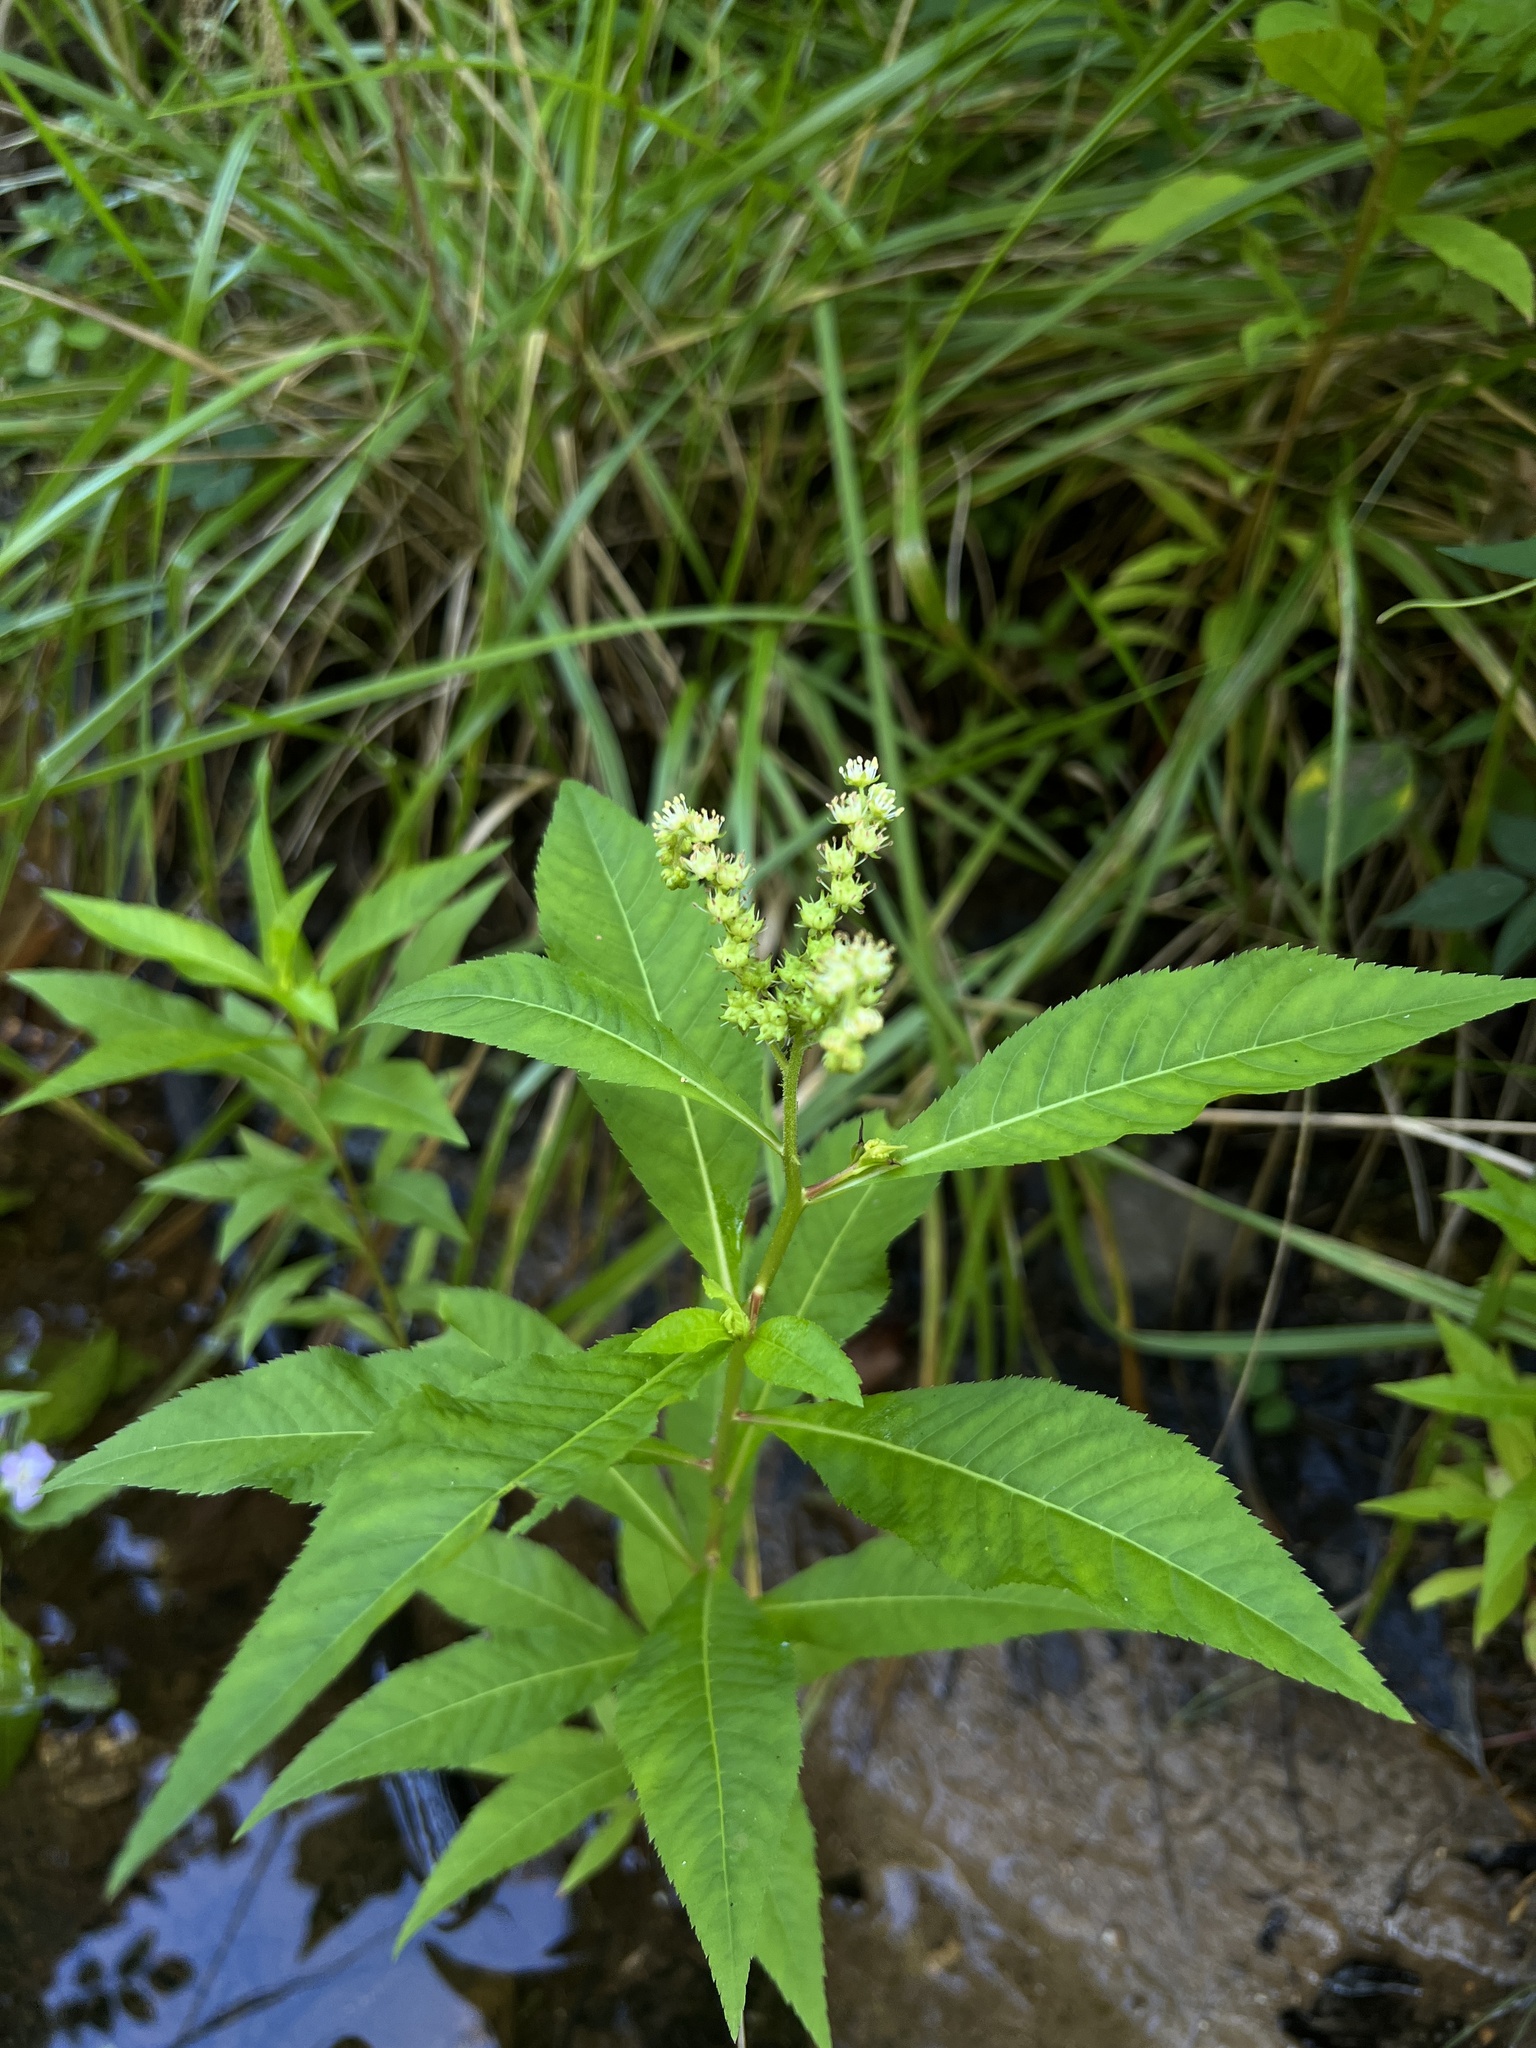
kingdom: Plantae
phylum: Tracheophyta
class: Magnoliopsida
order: Saxifragales
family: Penthoraceae
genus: Penthorum
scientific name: Penthorum sedoides
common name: Ditch stonecrop
